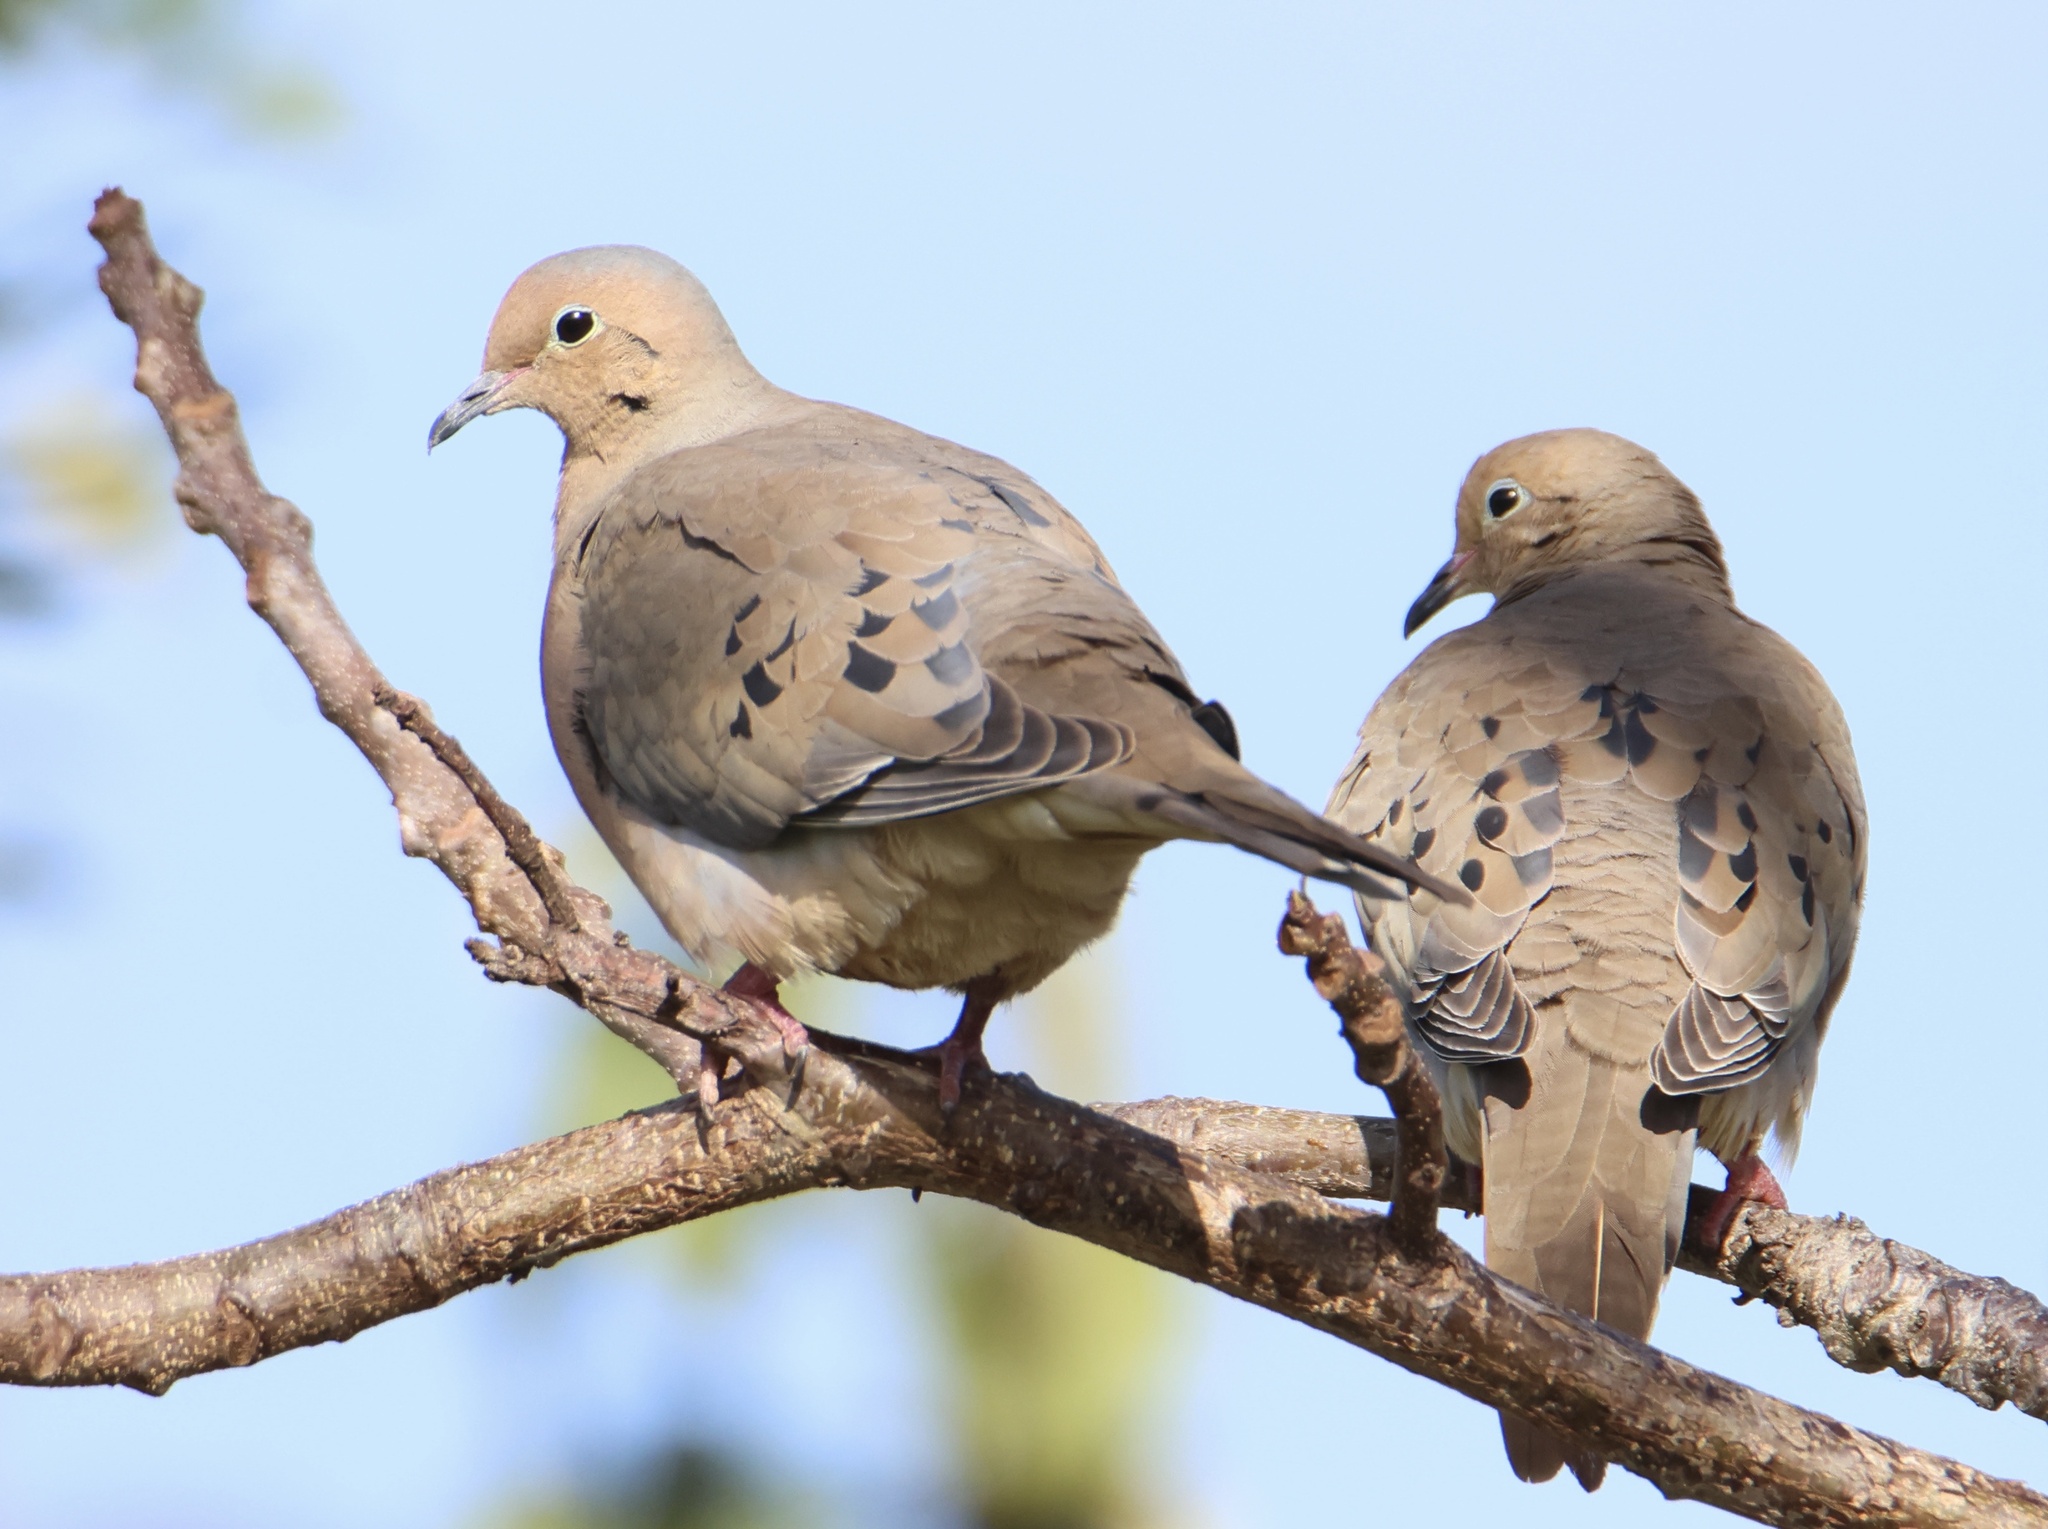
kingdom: Animalia
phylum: Chordata
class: Aves
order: Columbiformes
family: Columbidae
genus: Zenaida
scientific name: Zenaida macroura
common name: Mourning dove
